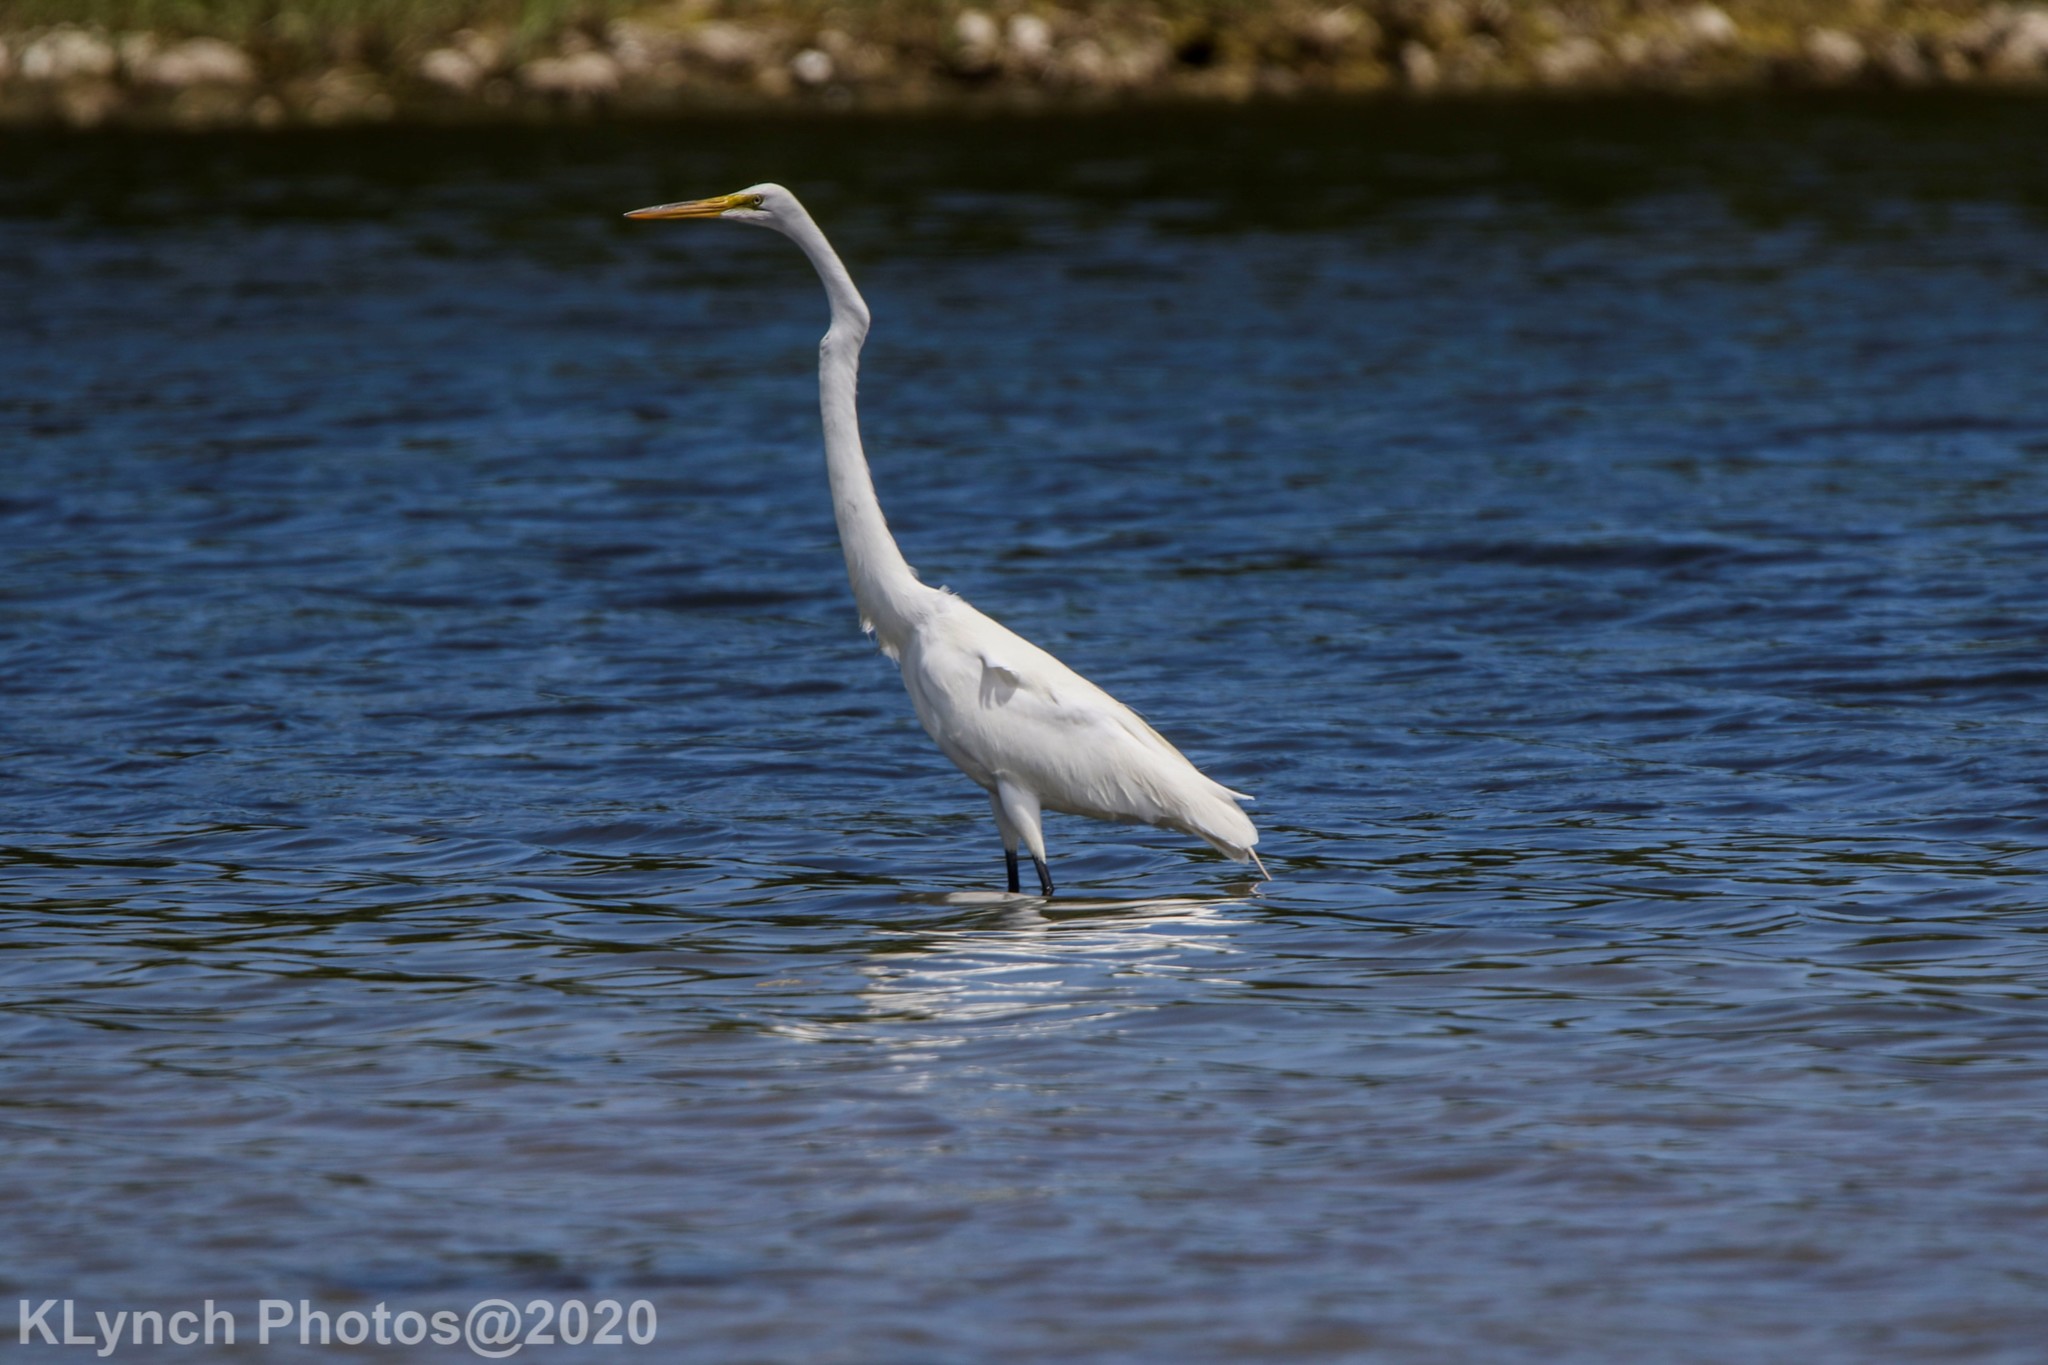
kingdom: Animalia
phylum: Chordata
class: Aves
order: Pelecaniformes
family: Ardeidae
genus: Ardea
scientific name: Ardea alba
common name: Great egret
